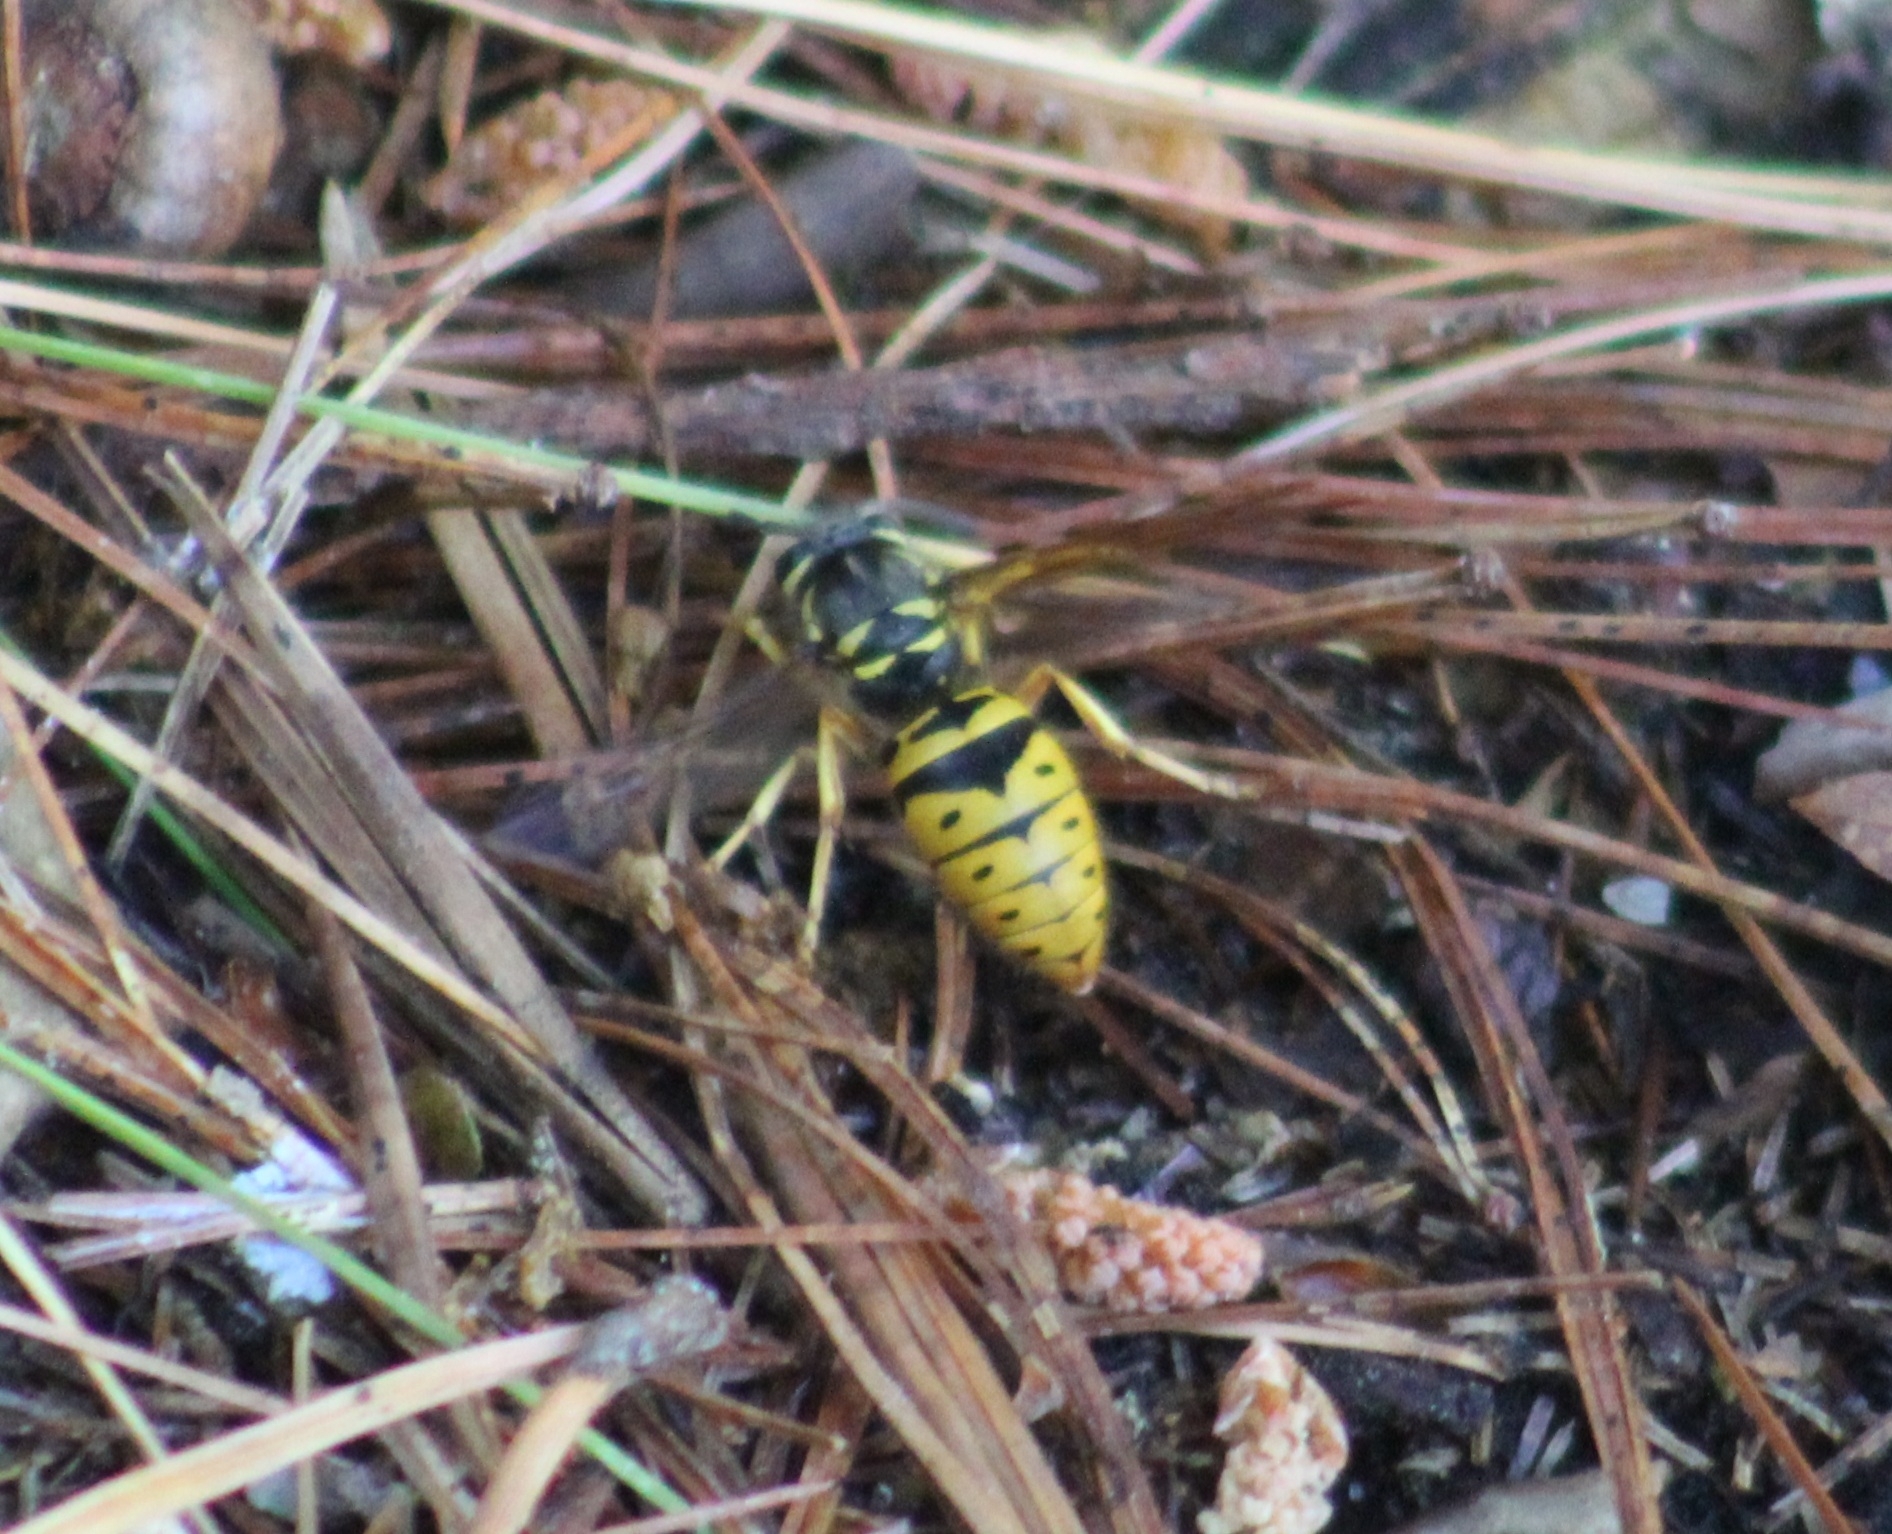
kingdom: Animalia
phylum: Arthropoda
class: Insecta
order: Hymenoptera
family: Vespidae
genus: Vespula
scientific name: Vespula maculifrons
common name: Eastern yellowjacket
